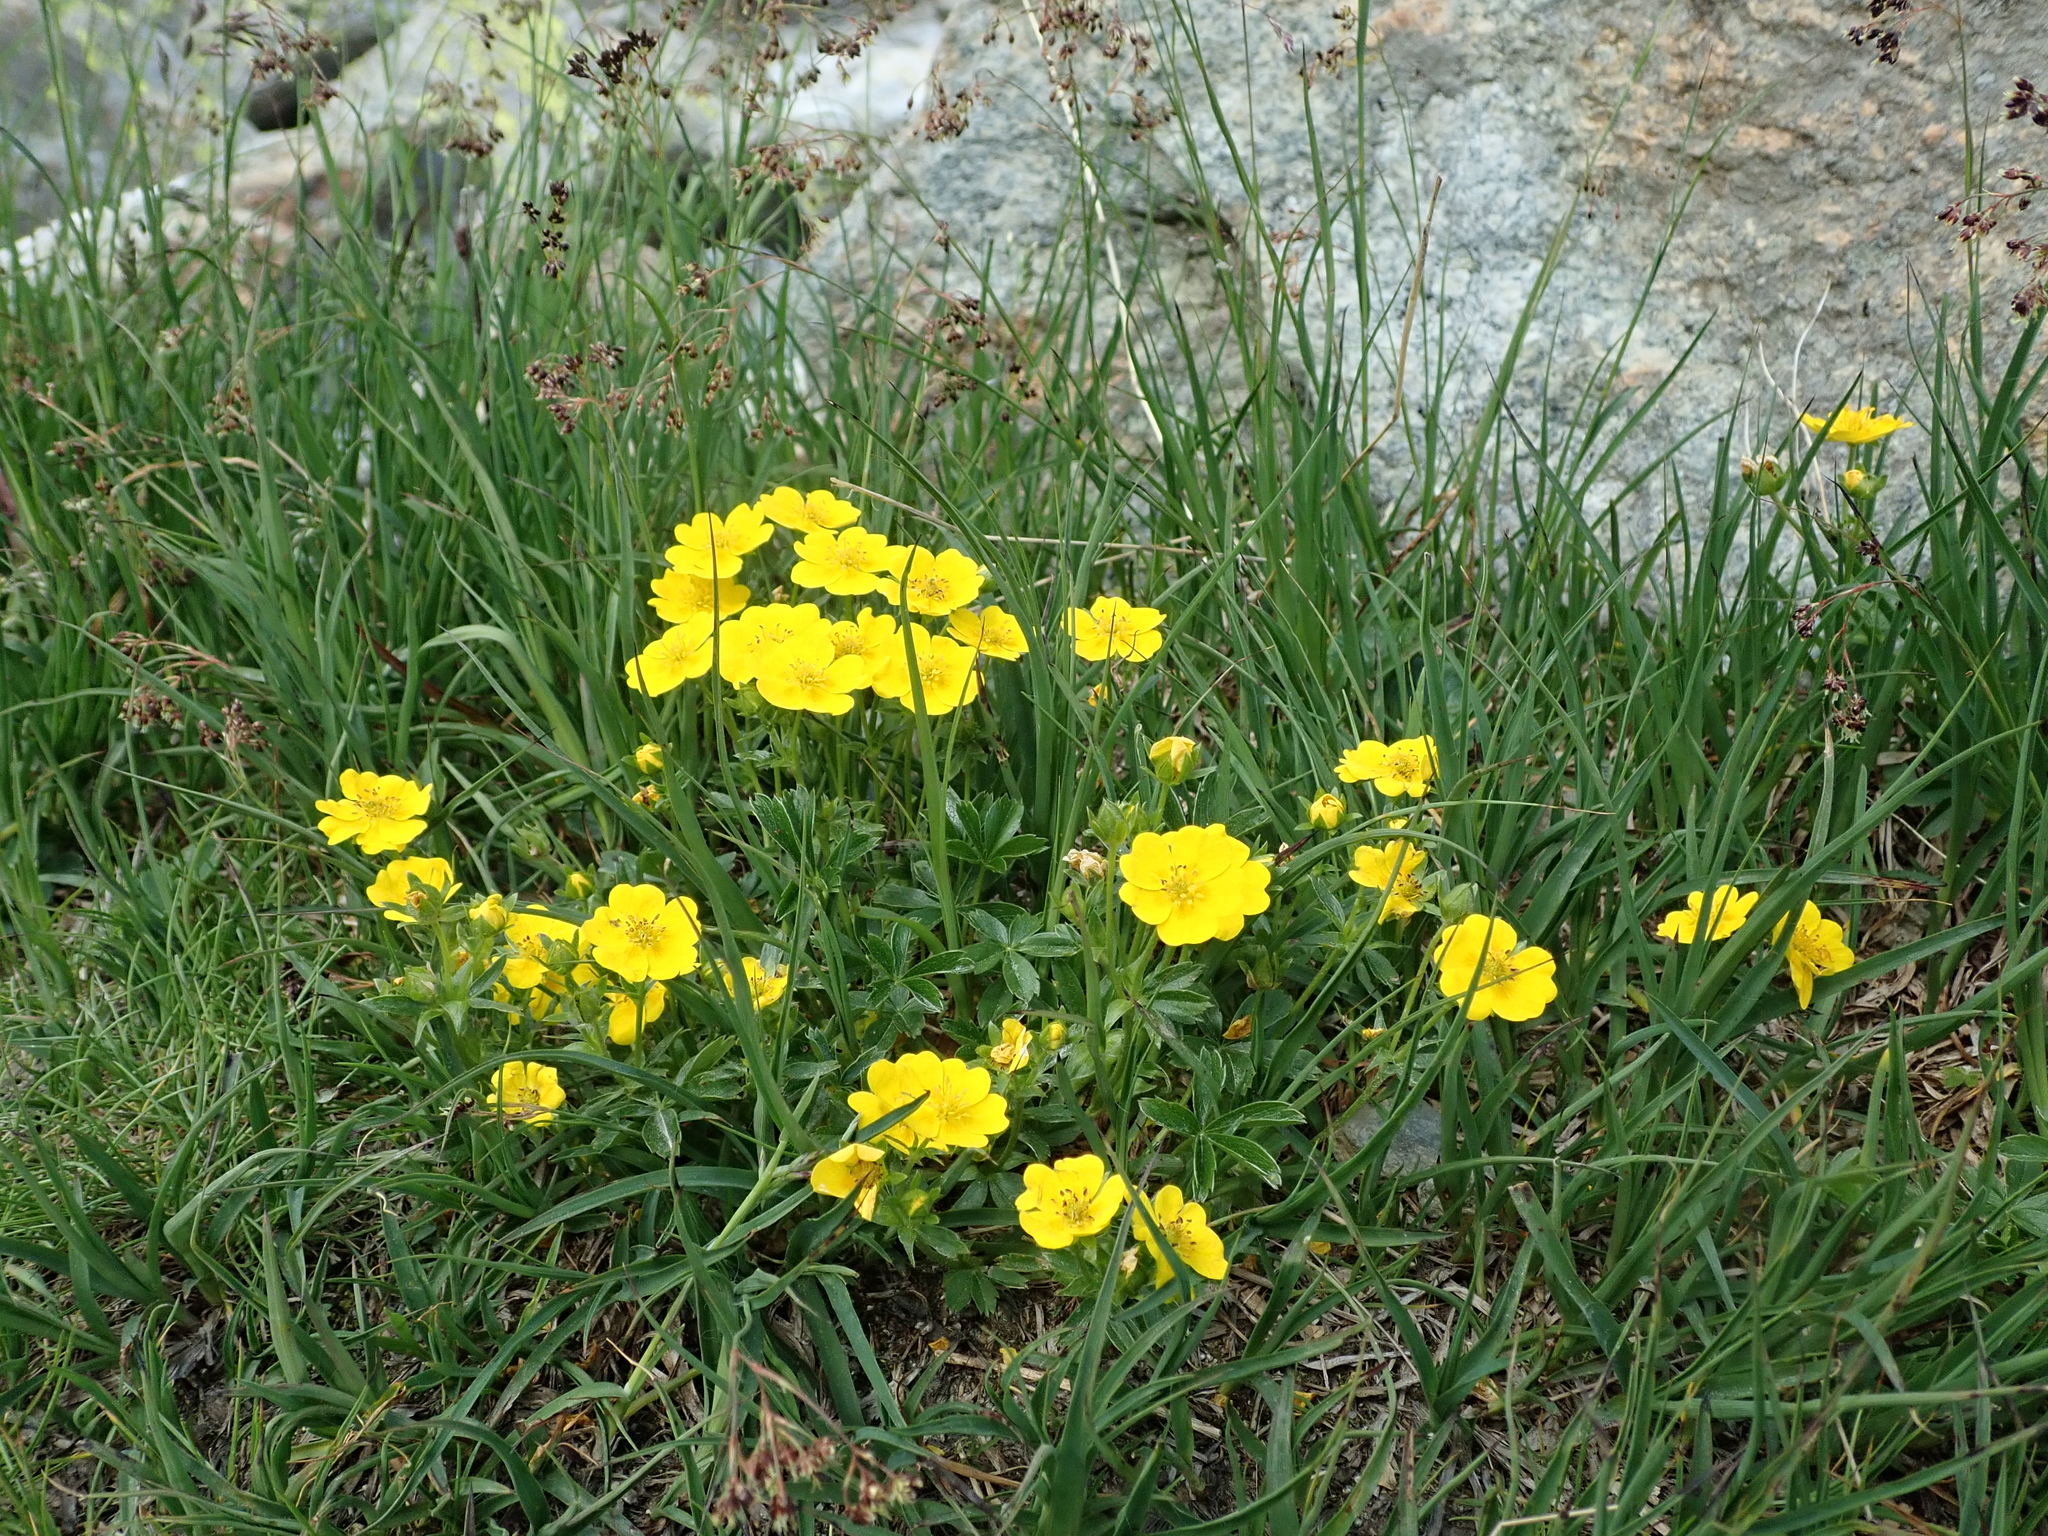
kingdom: Plantae
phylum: Tracheophyta
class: Magnoliopsida
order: Rosales
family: Rosaceae
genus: Potentilla
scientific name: Potentilla aurea
